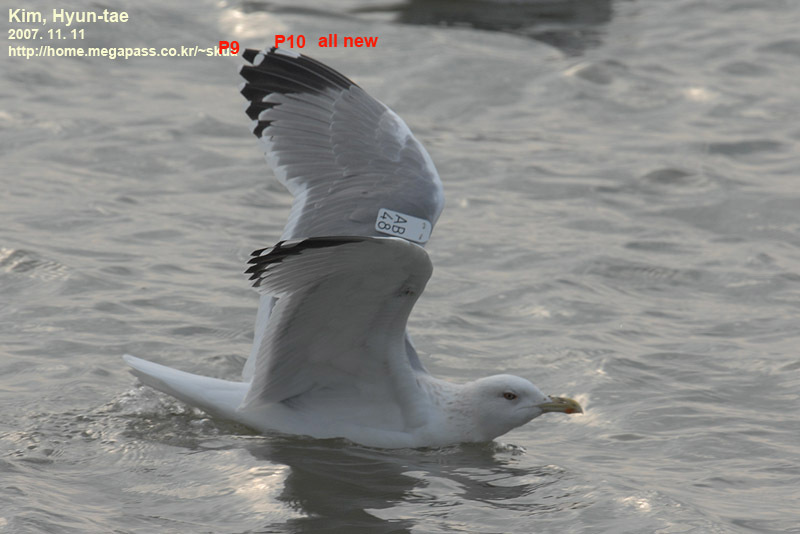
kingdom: Animalia
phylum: Chordata
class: Aves
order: Charadriiformes
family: Laridae
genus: Larus
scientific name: Larus vegae
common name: Vega gull
